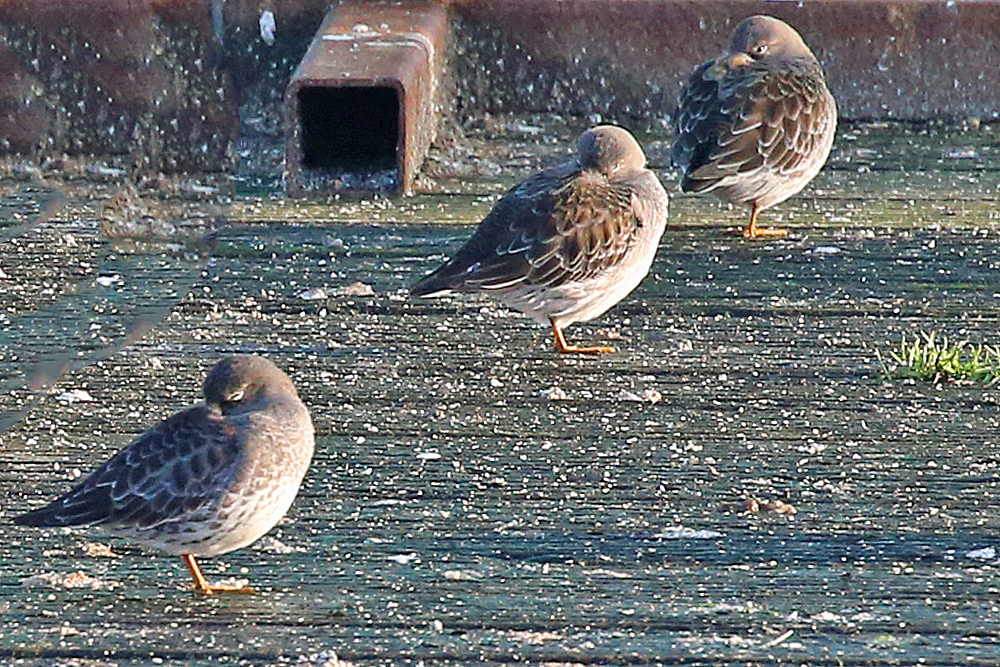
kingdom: Animalia
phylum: Chordata
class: Aves
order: Charadriiformes
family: Scolopacidae
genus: Calidris
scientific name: Calidris maritima
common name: Purple sandpiper
